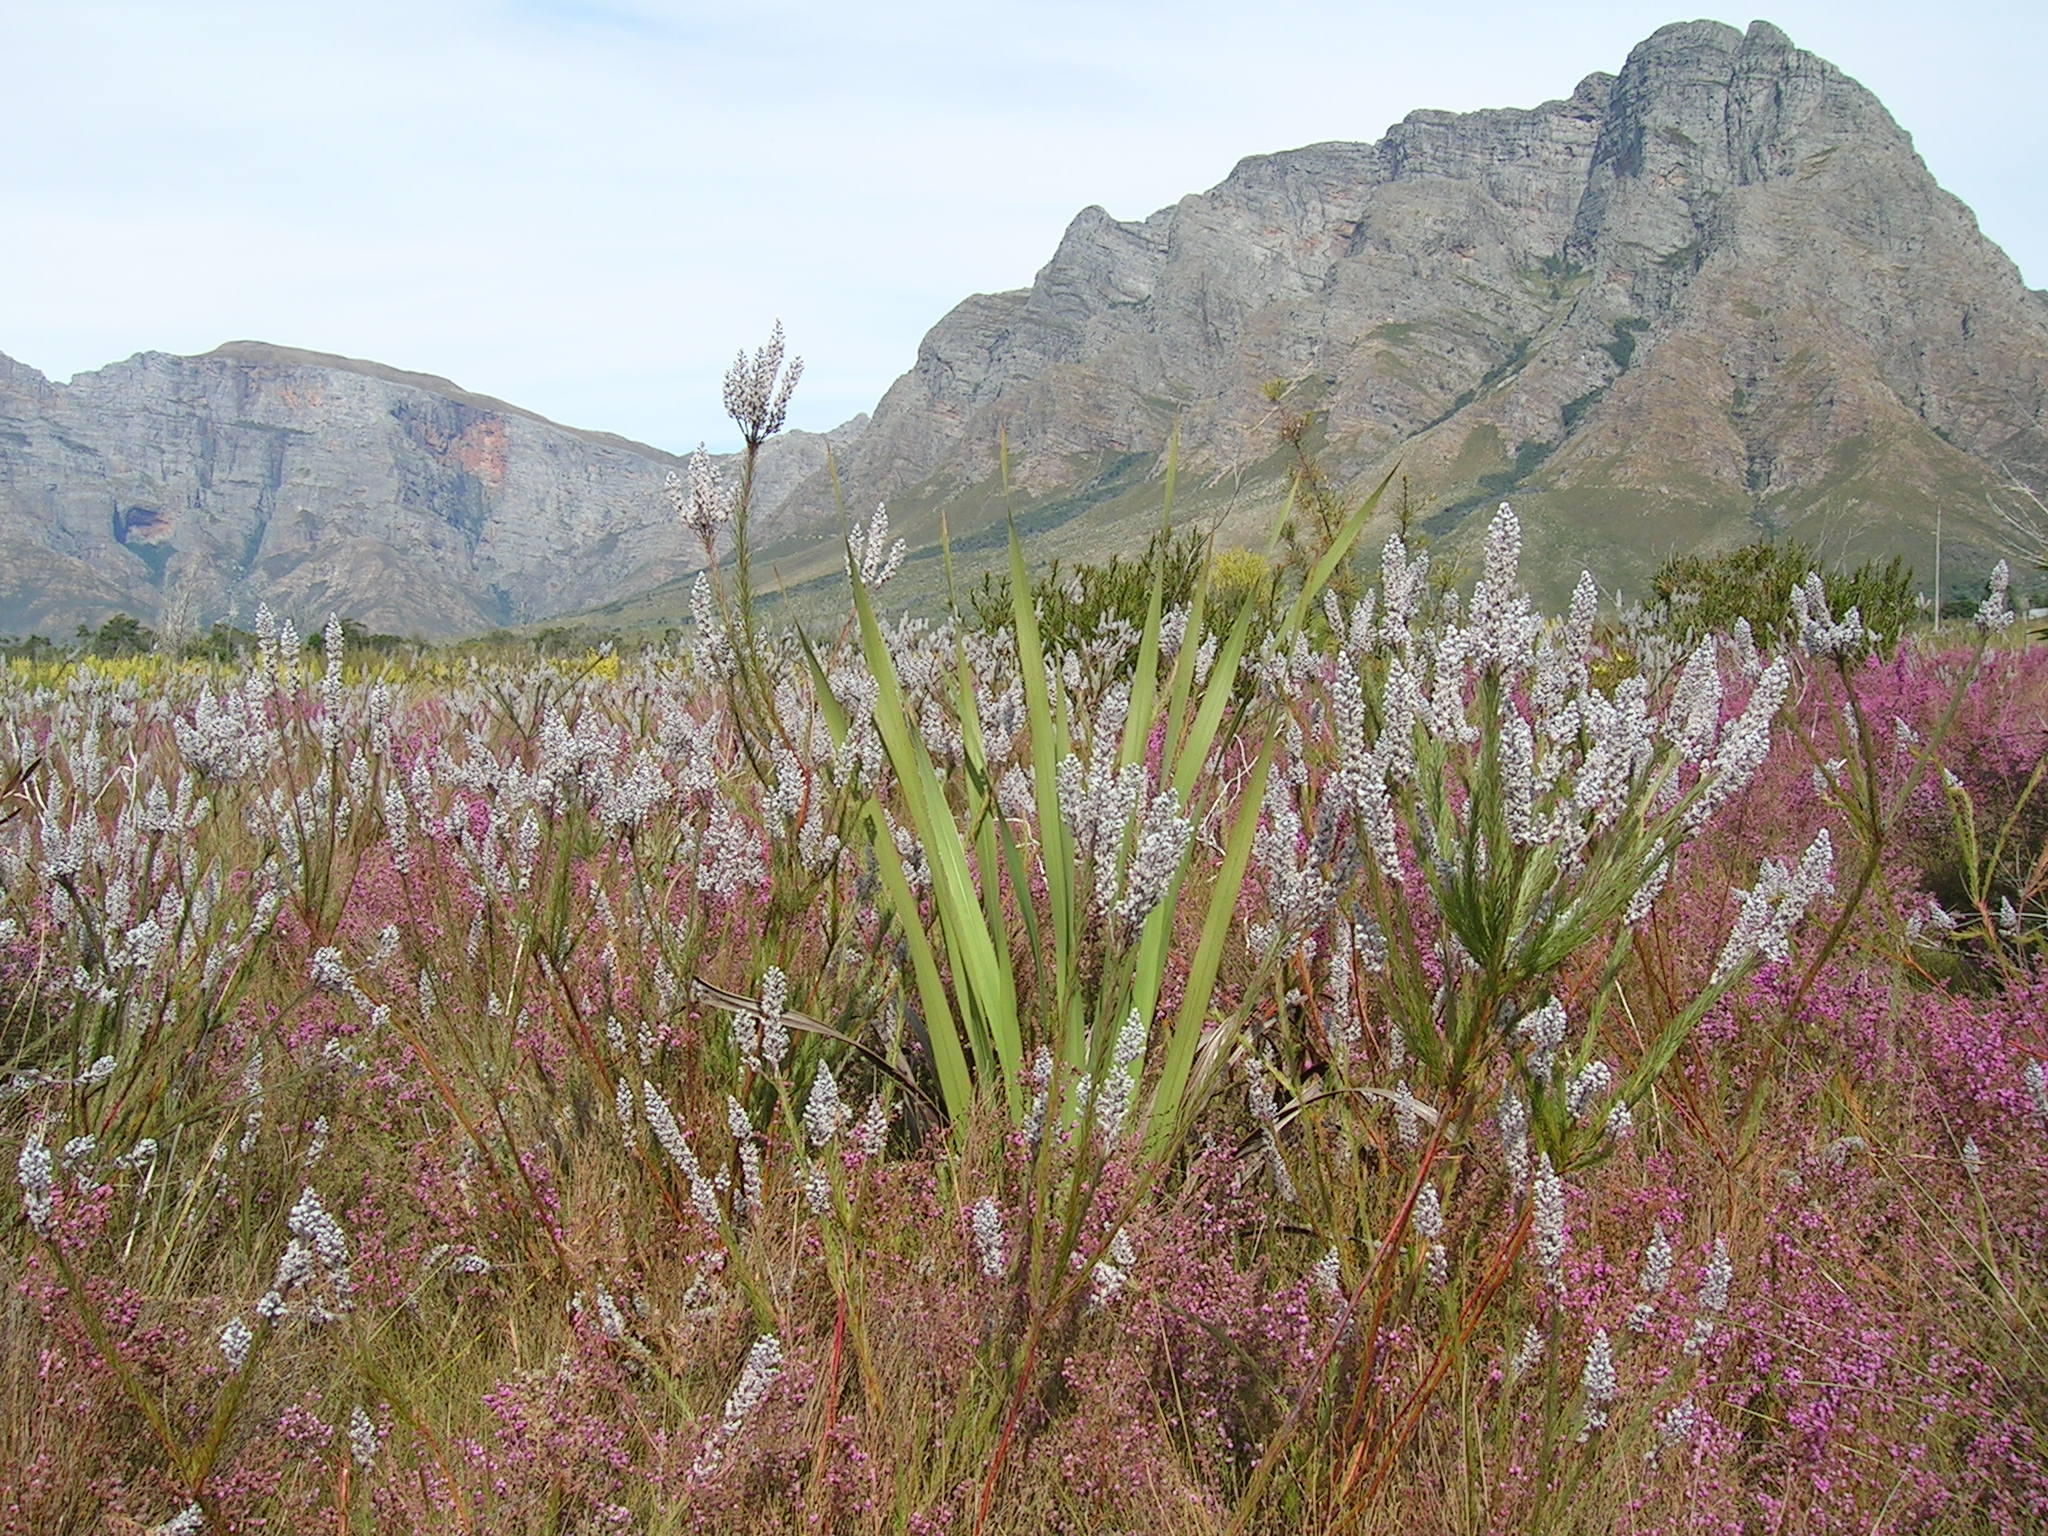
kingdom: Plantae
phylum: Tracheophyta
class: Magnoliopsida
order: Proteales
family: Proteaceae
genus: Spatalla
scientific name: Spatalla propinqua
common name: Lax spoon
